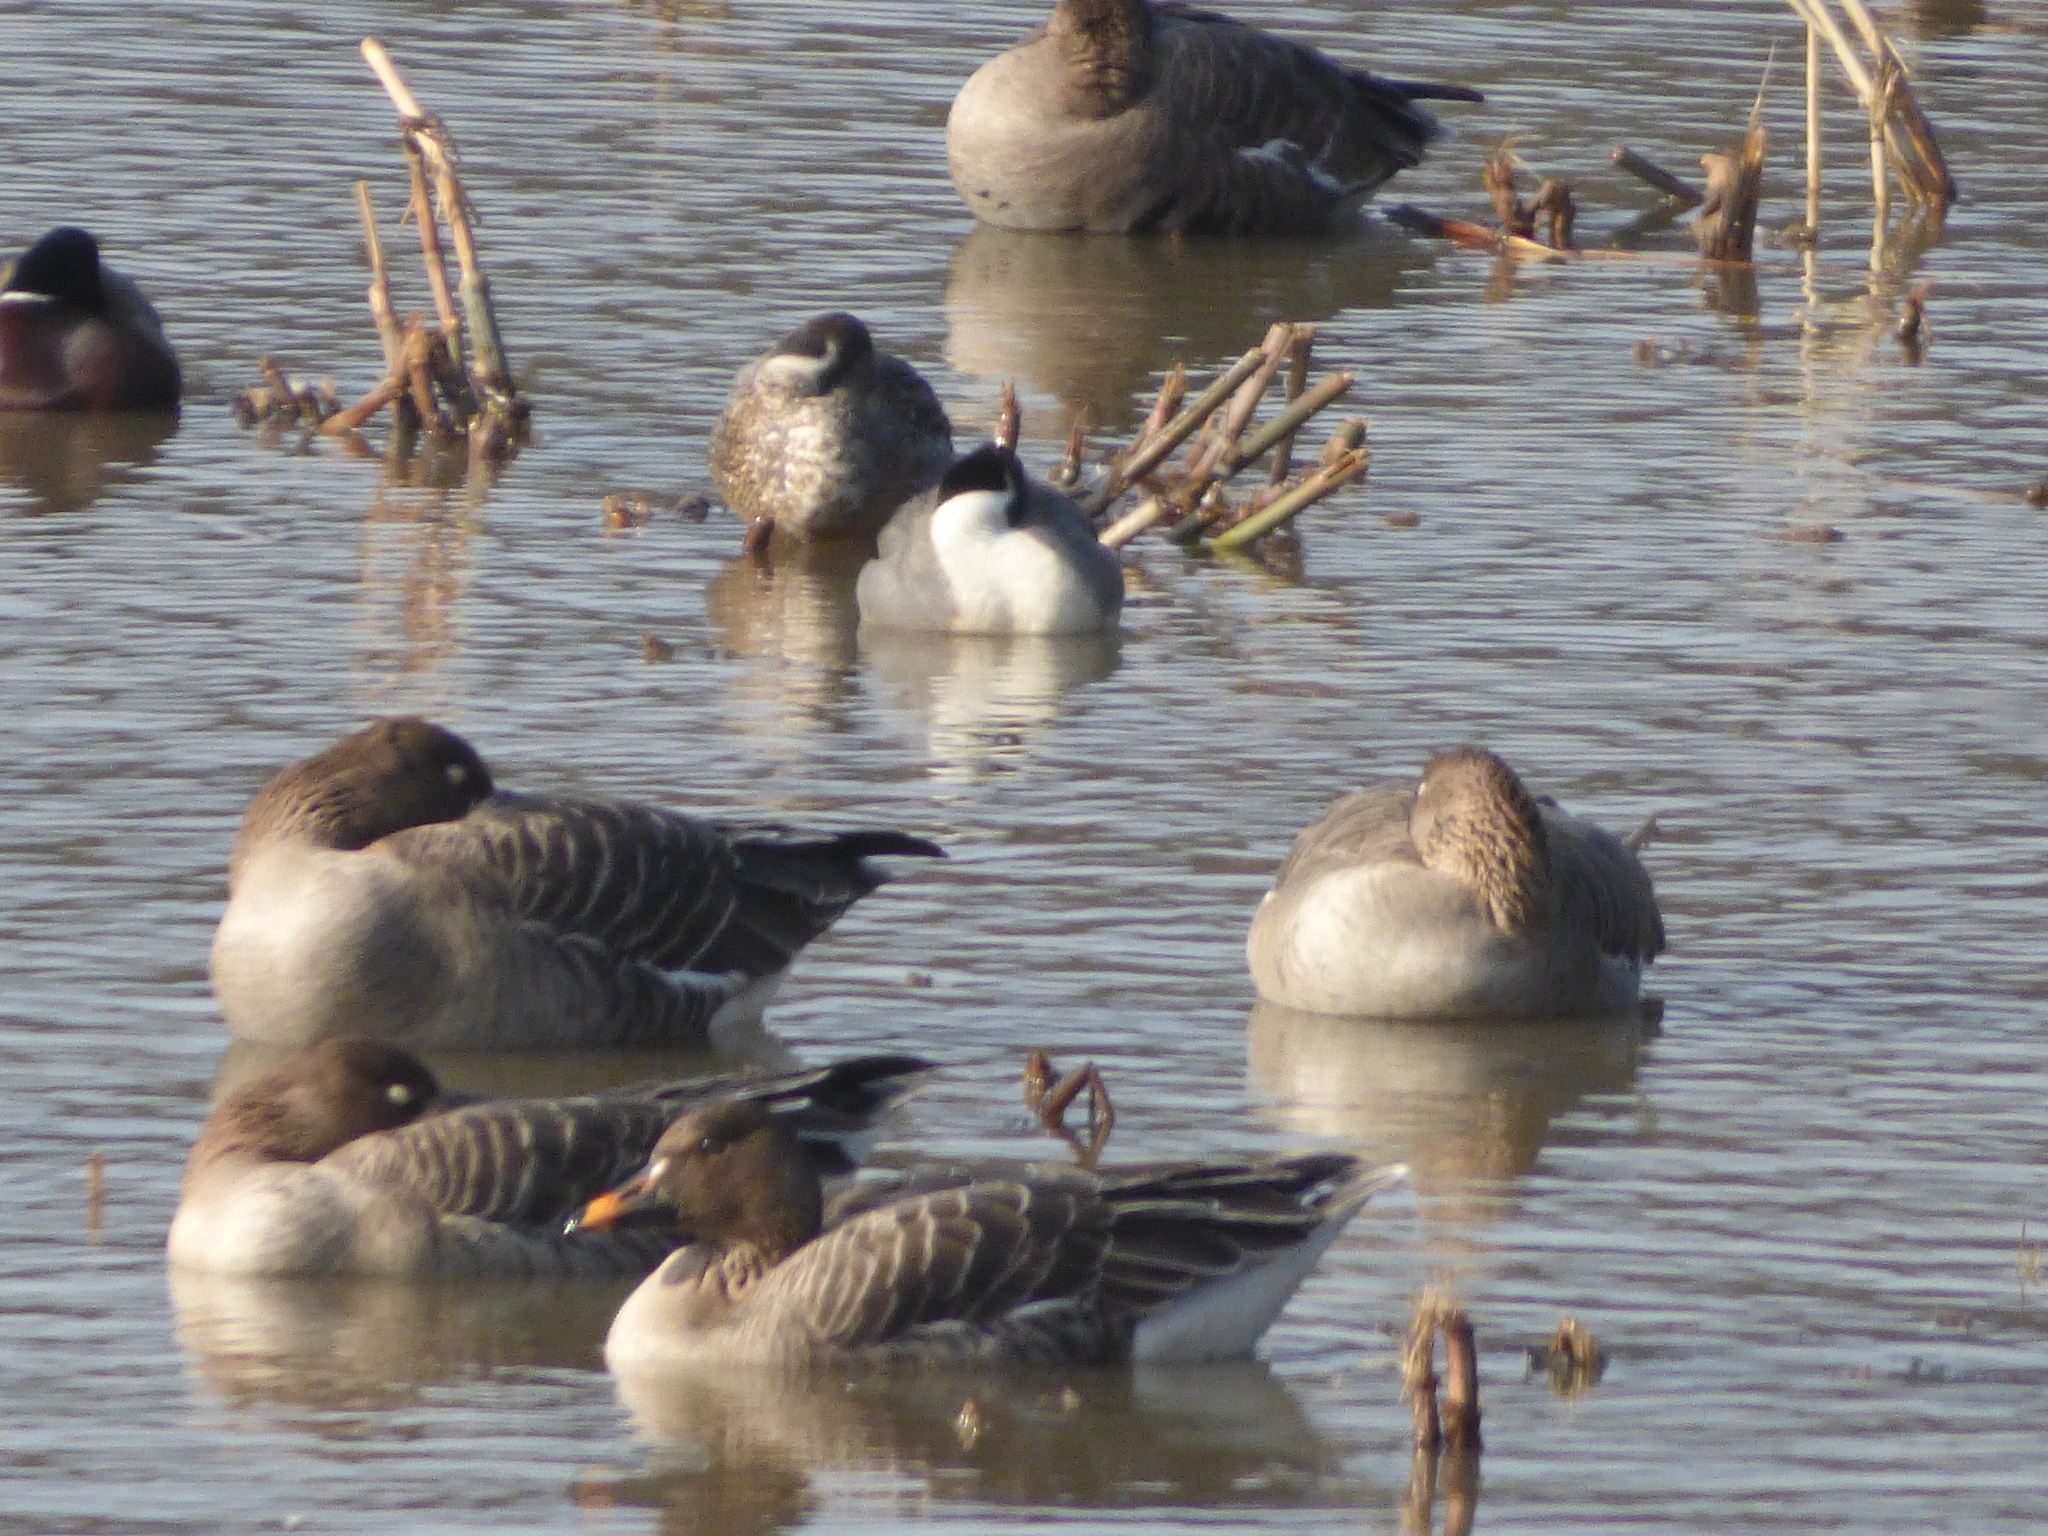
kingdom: Animalia
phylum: Chordata
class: Aves
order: Anseriformes
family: Anatidae
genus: Anser
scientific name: Anser serrirostris
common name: Tundra bean goose
